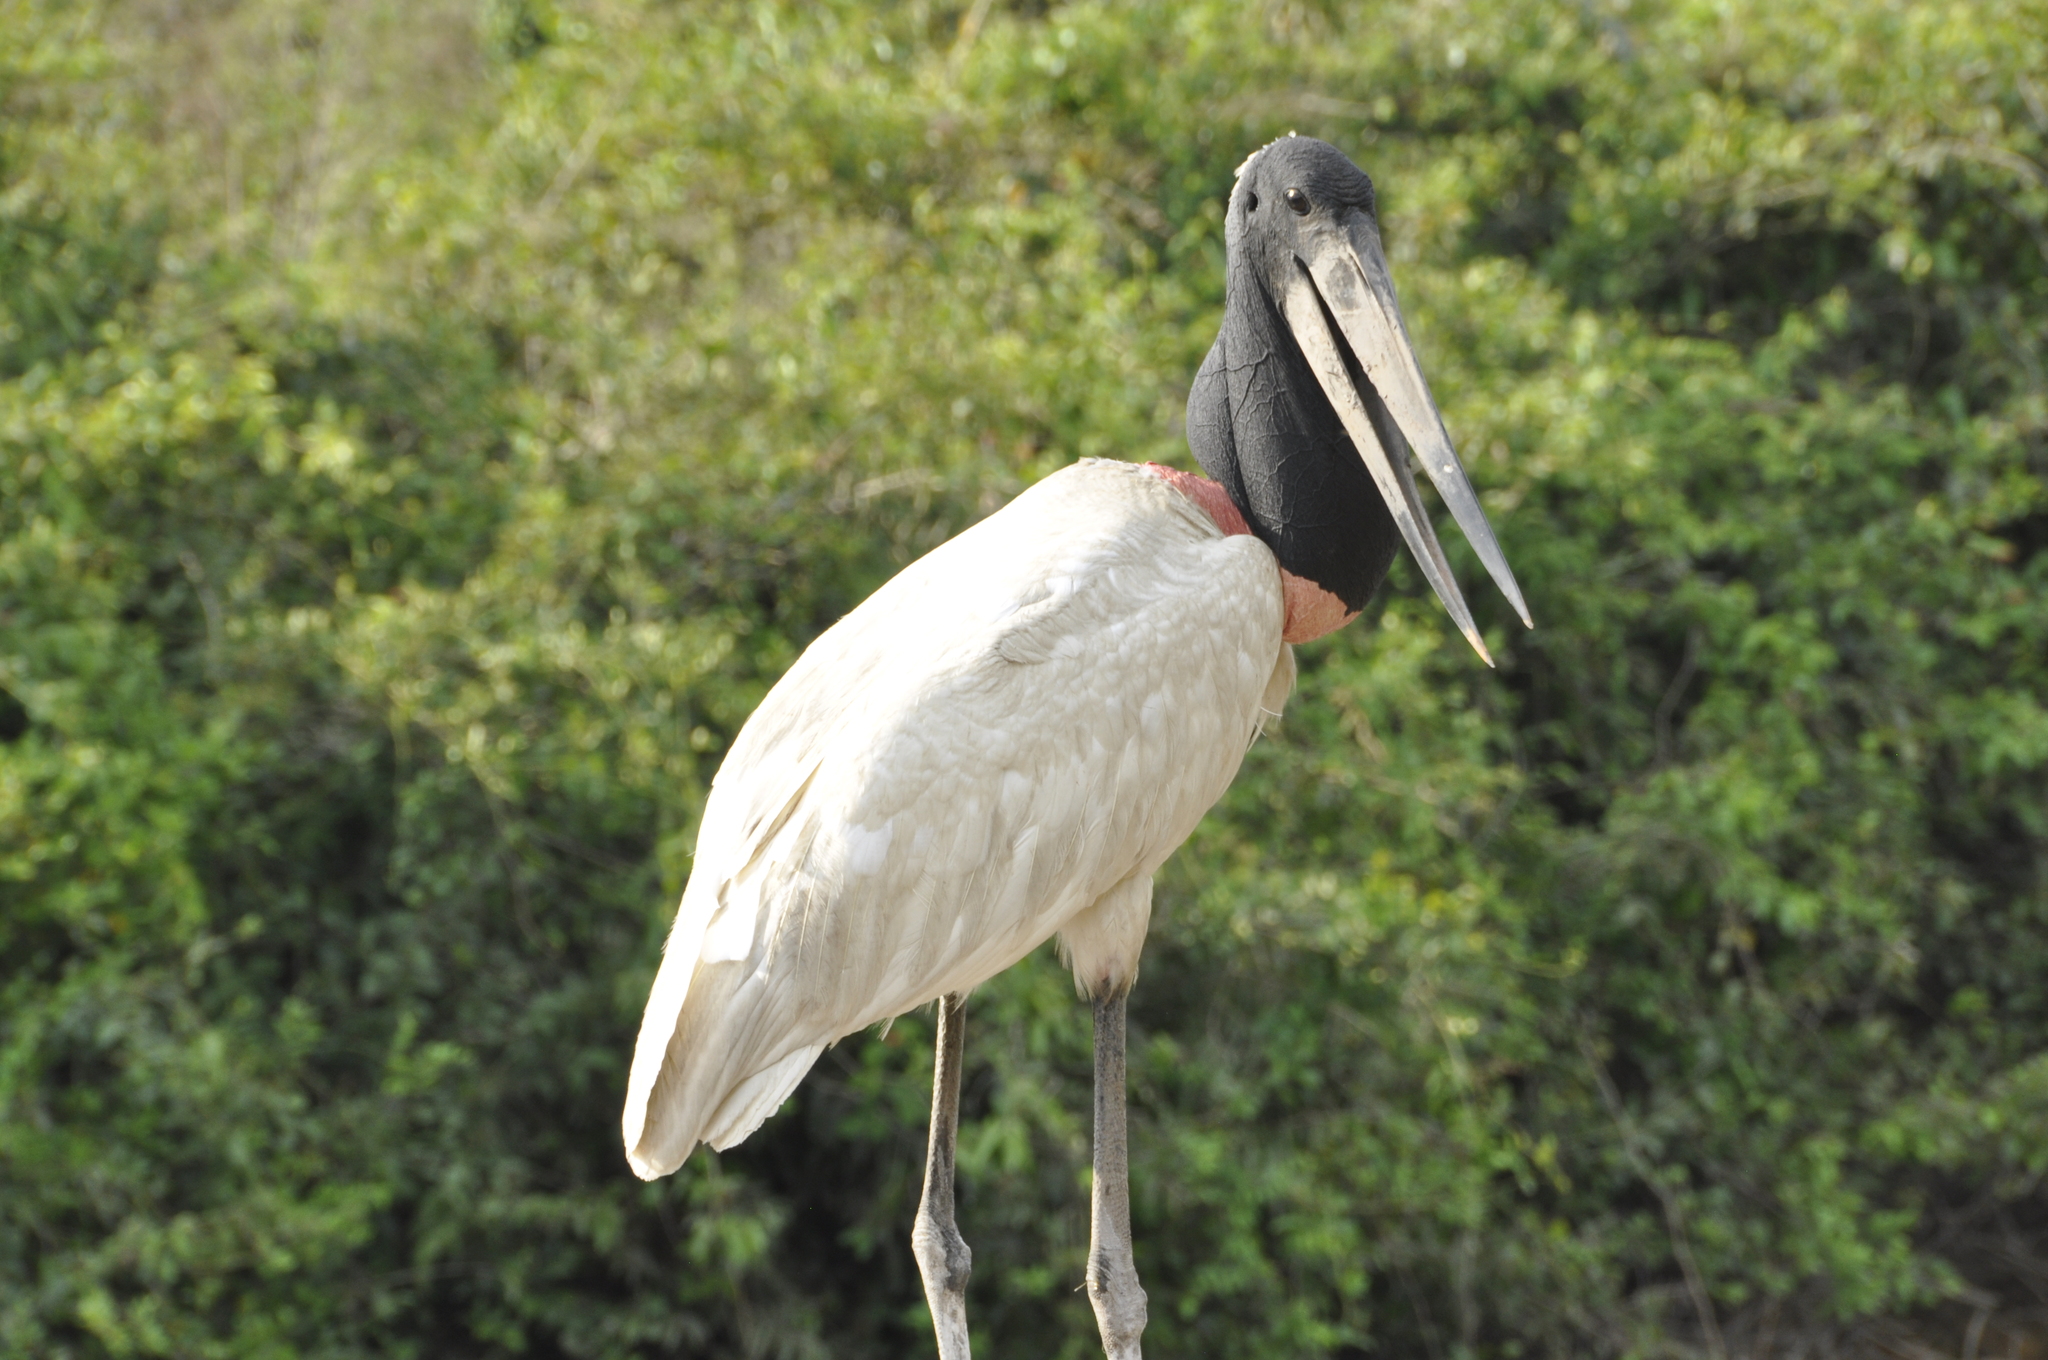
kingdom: Animalia
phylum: Chordata
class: Aves
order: Ciconiiformes
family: Ciconiidae
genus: Jabiru
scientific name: Jabiru mycteria
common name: Jabiru
